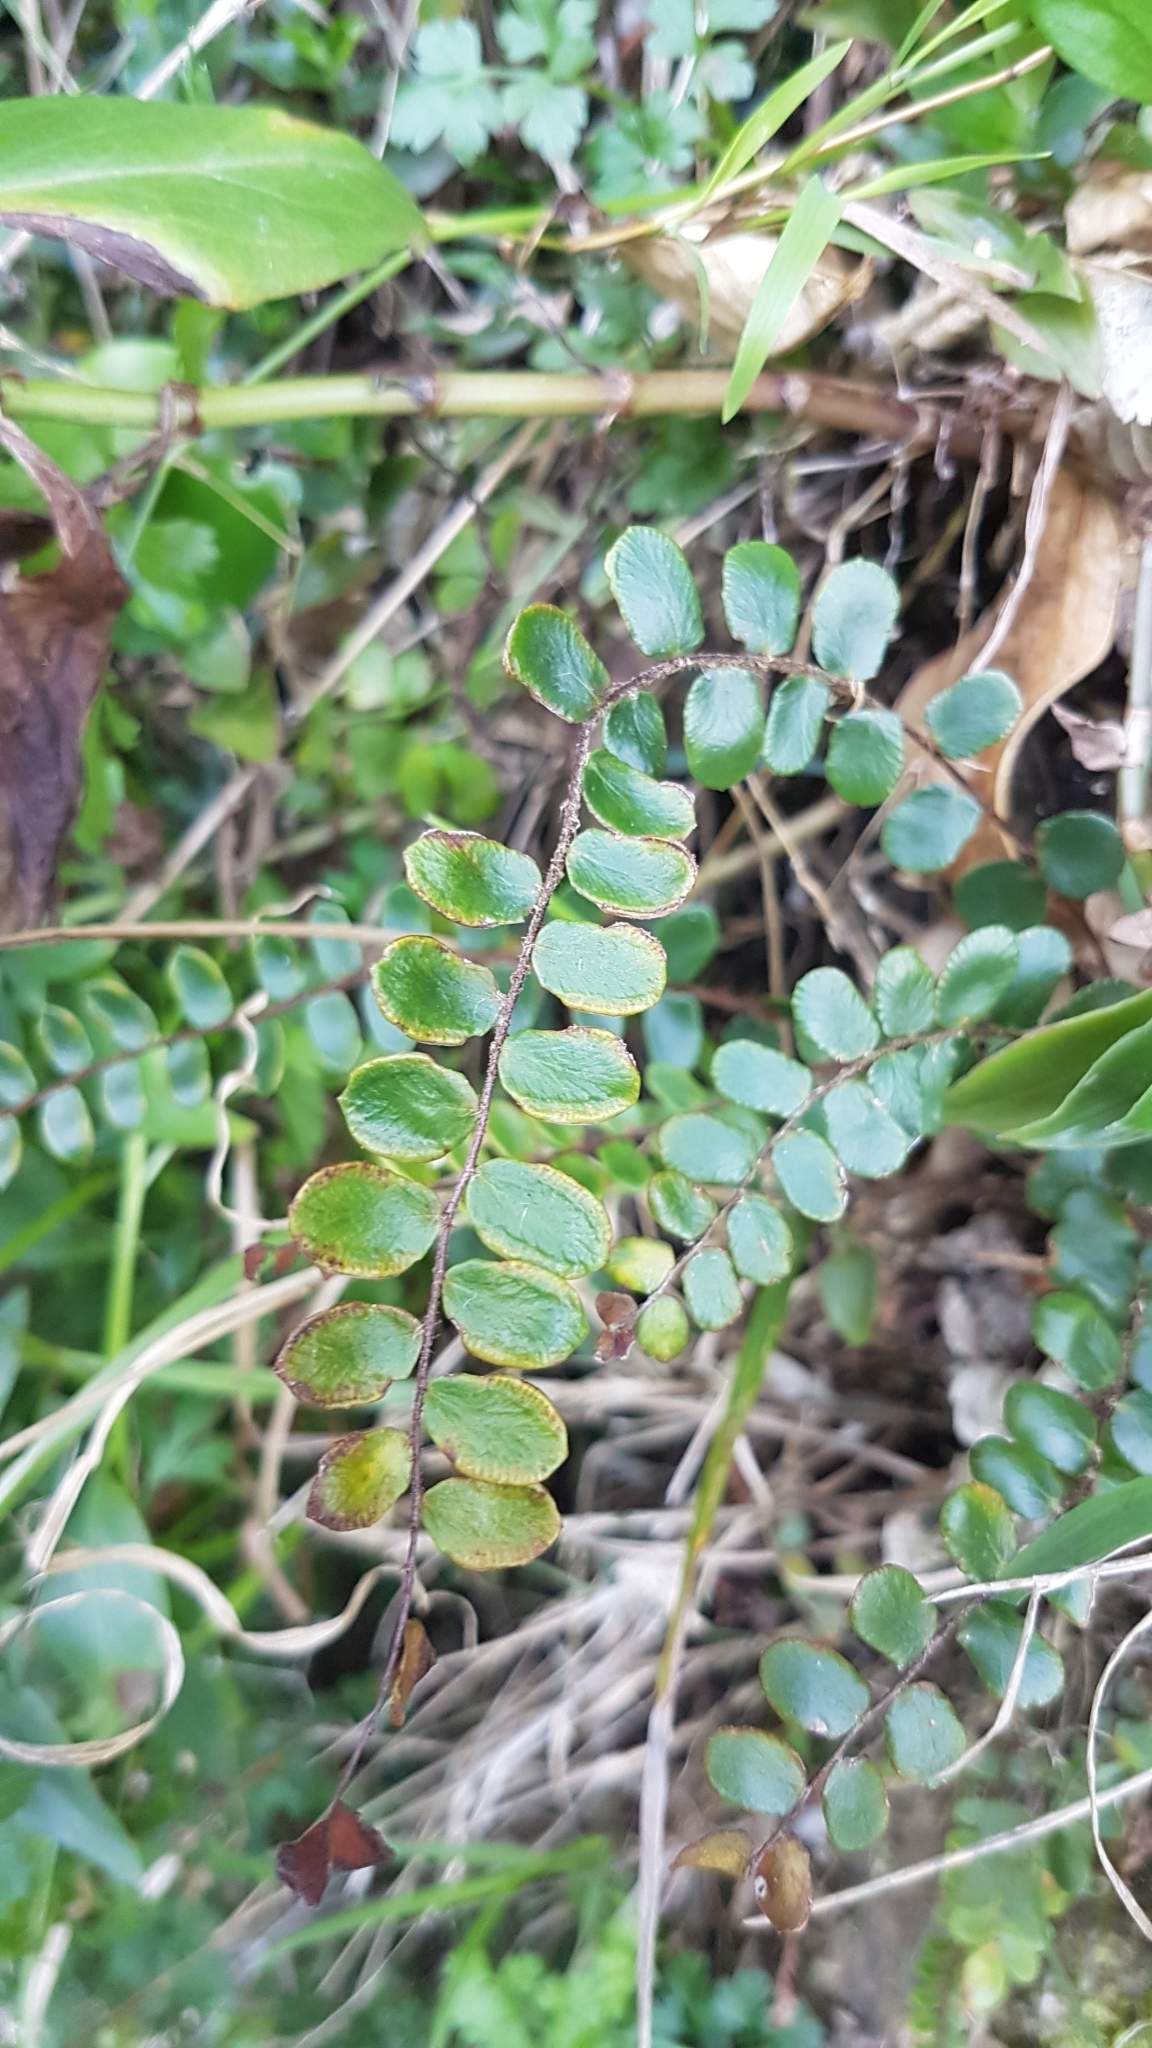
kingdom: Plantae
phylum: Tracheophyta
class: Polypodiopsida
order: Polypodiales
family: Pteridaceae
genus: Pellaea
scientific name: Pellaea rotundifolia
